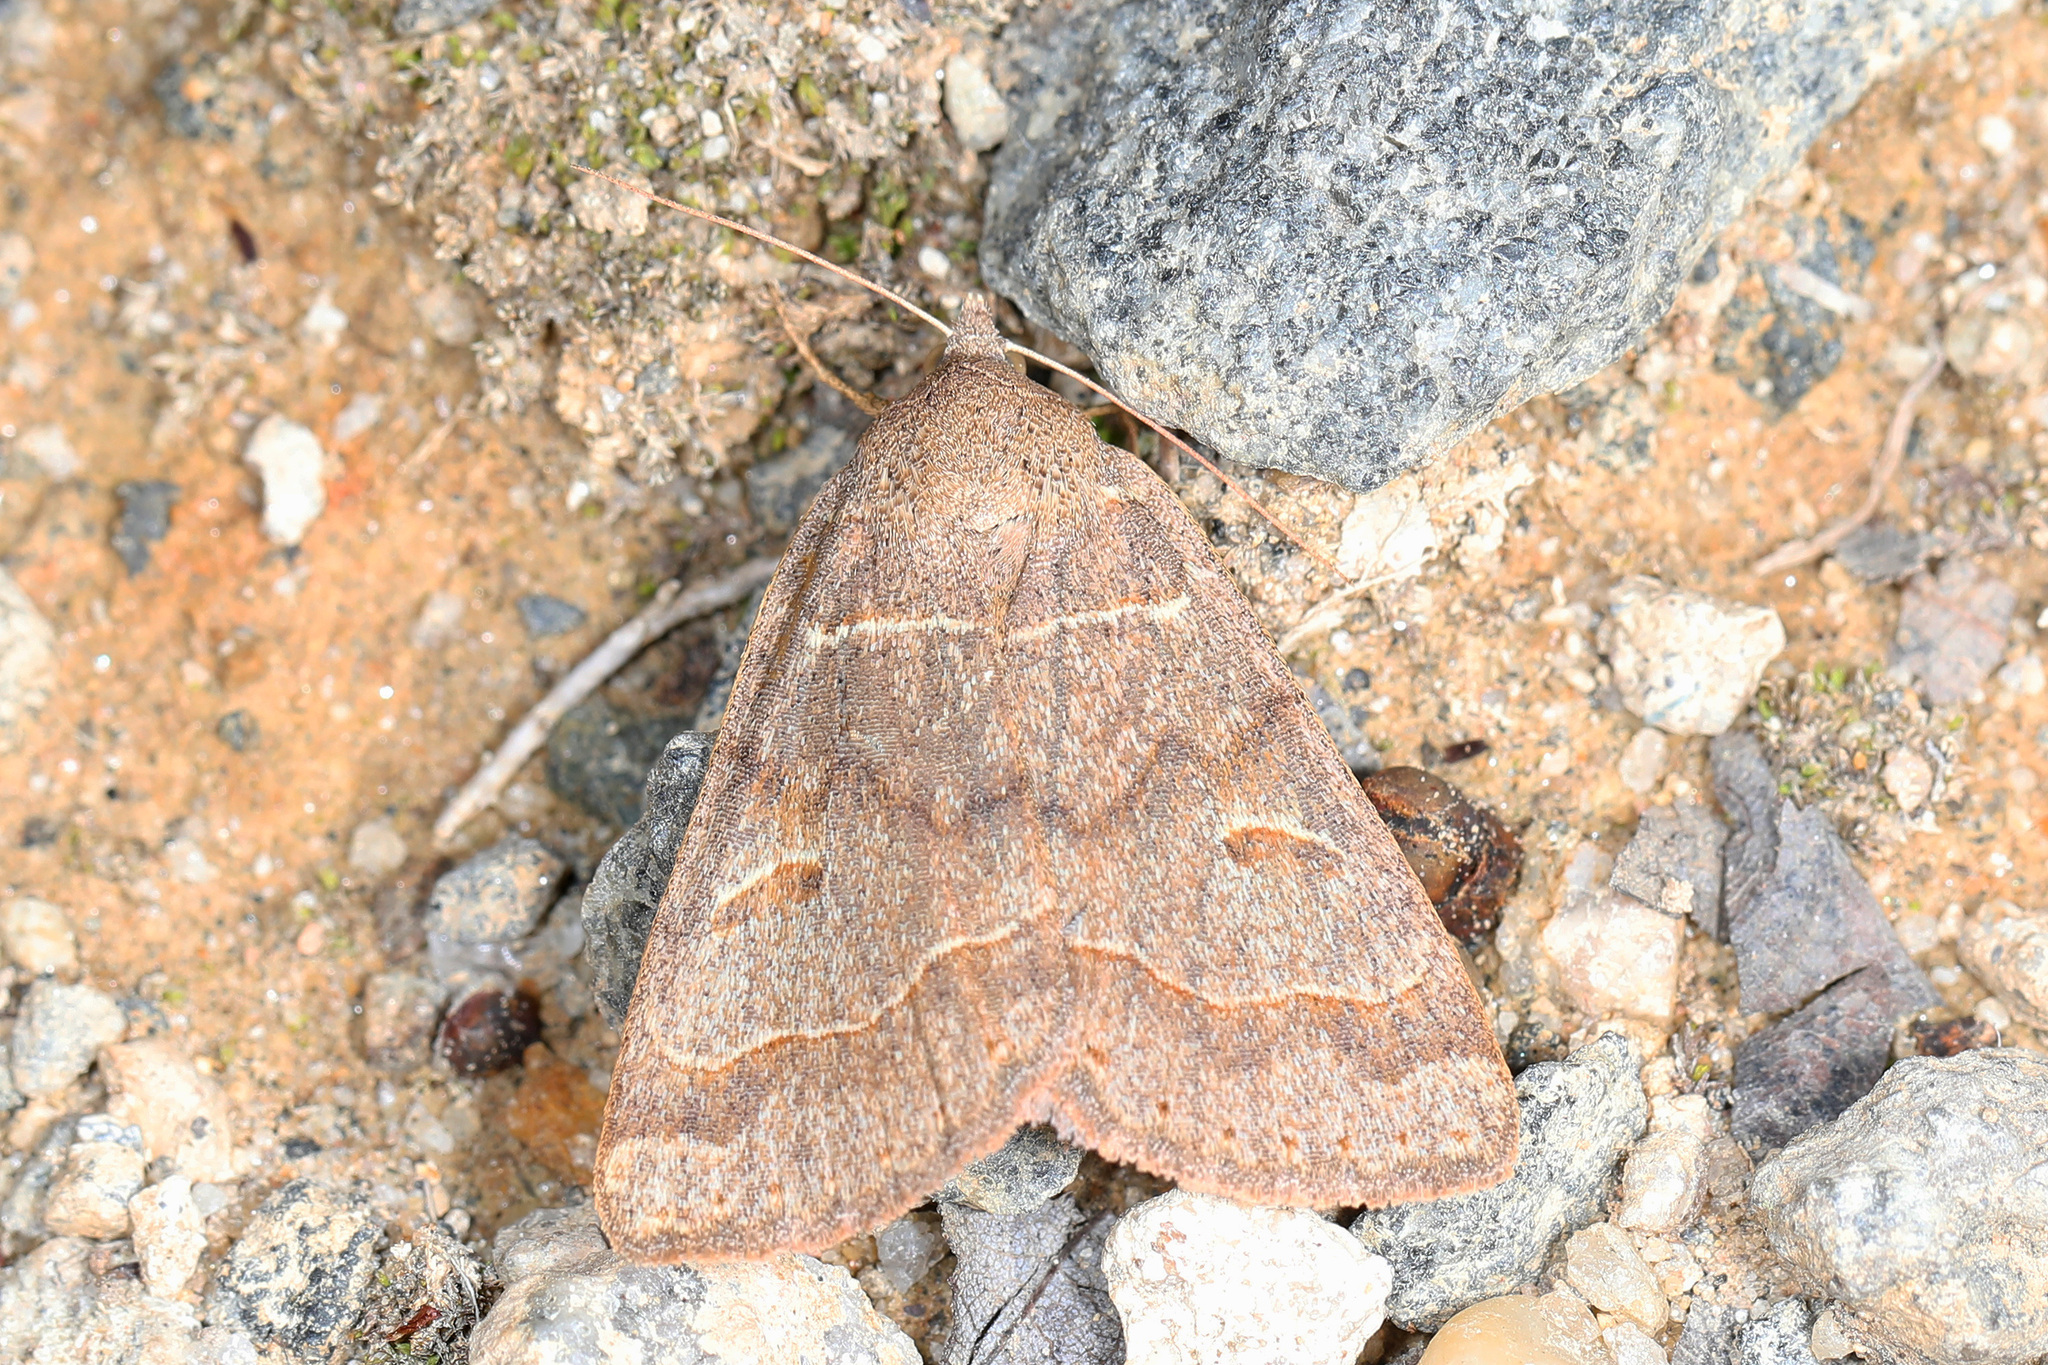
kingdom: Animalia
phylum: Arthropoda
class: Insecta
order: Lepidoptera
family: Erebidae
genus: Phoberia
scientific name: Phoberia atomaris
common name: Common oak moth
